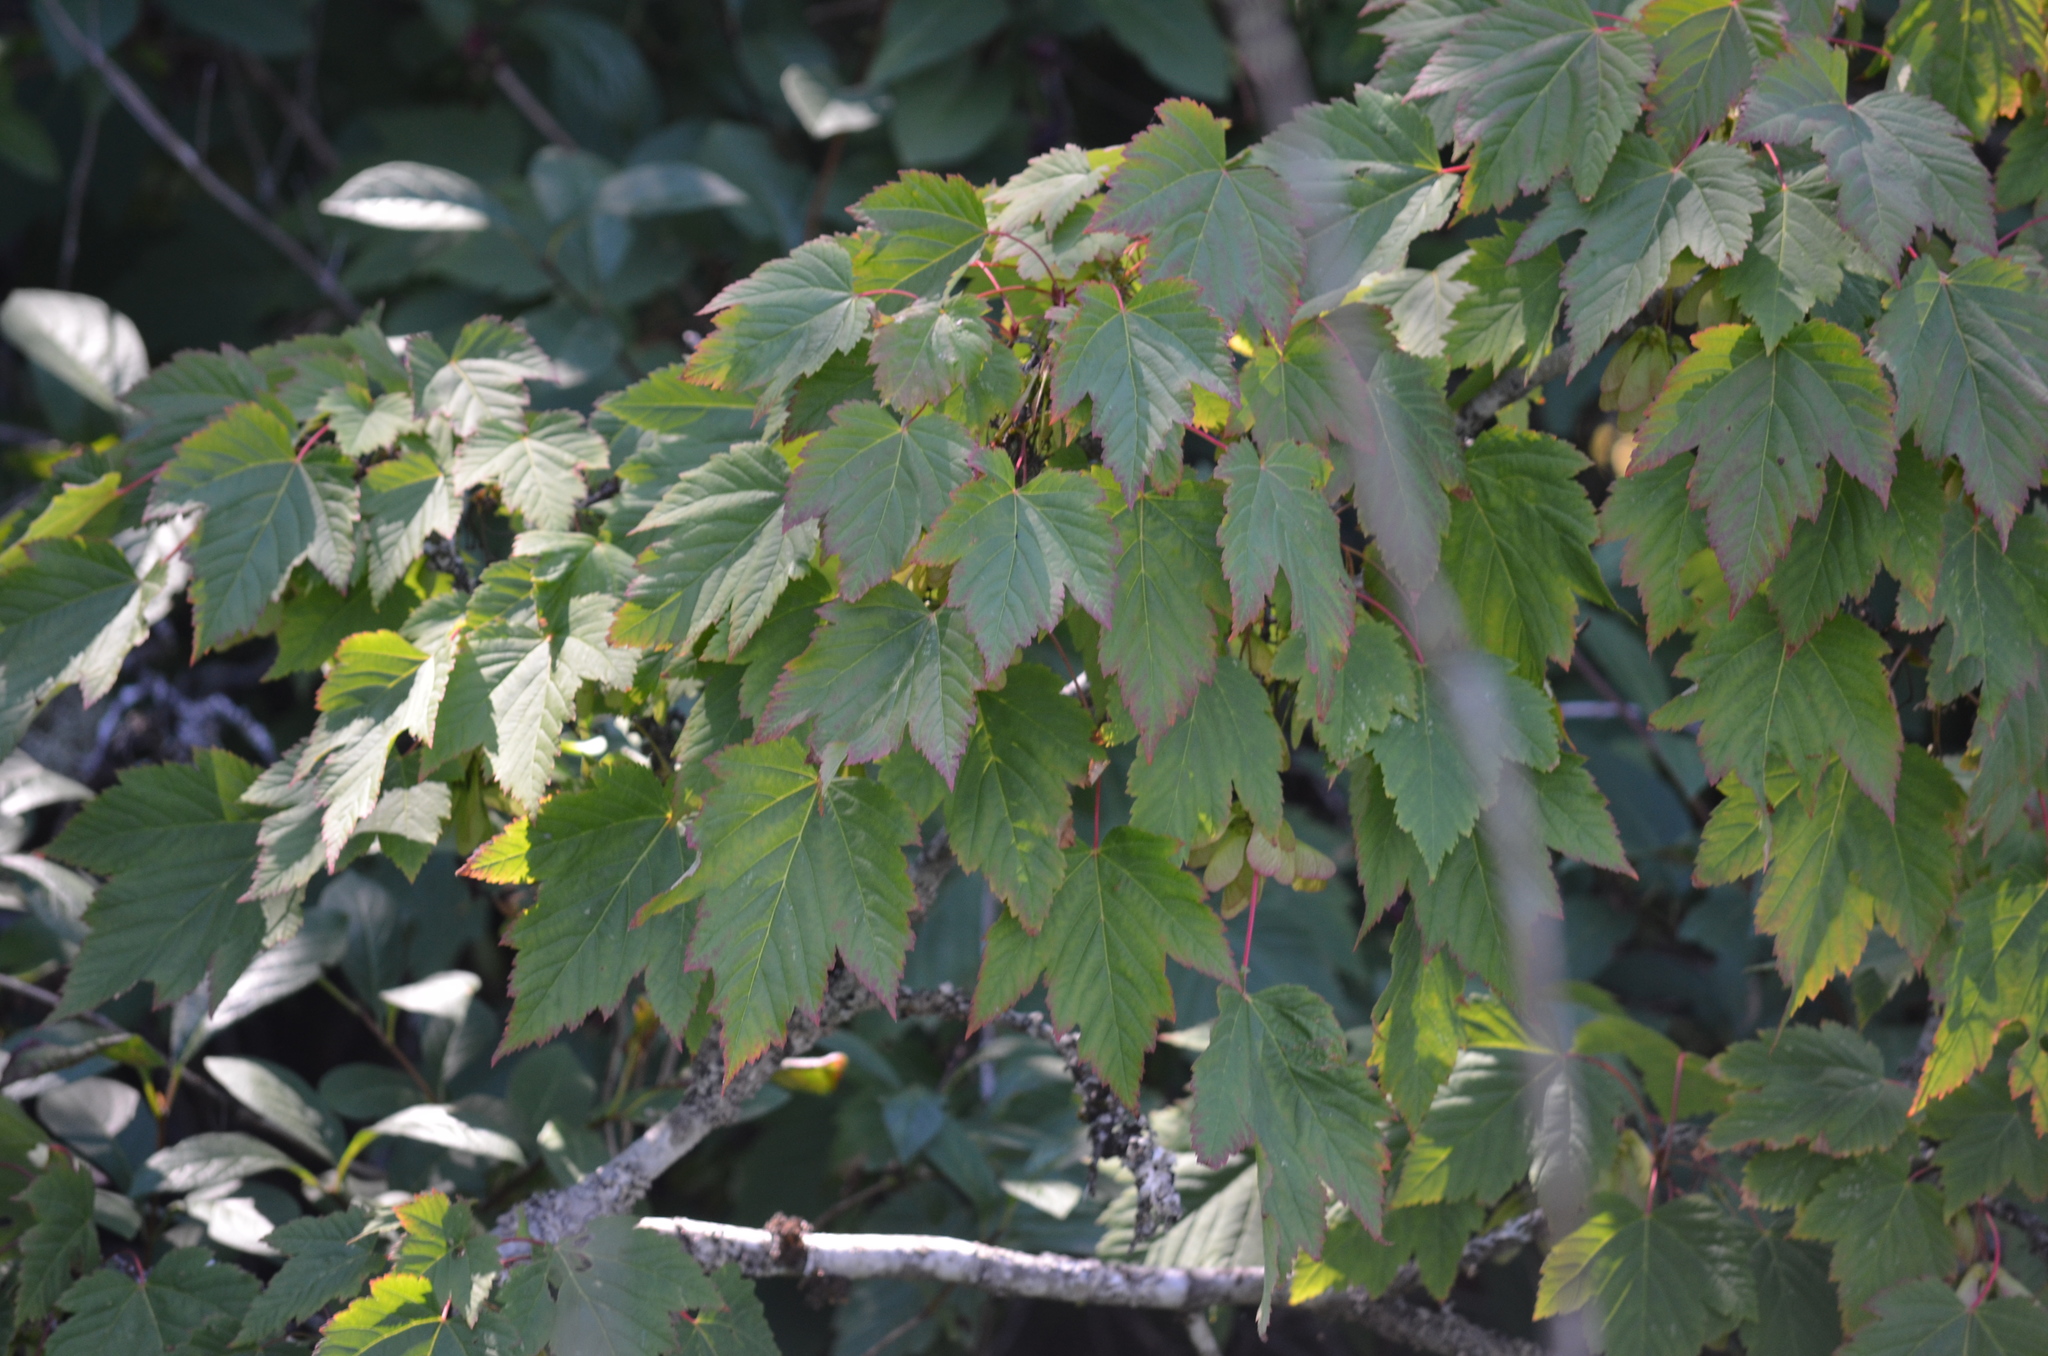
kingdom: Plantae
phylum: Tracheophyta
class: Magnoliopsida
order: Sapindales
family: Sapindaceae
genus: Acer
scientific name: Acer glabrum
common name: Rocky mountain maple
